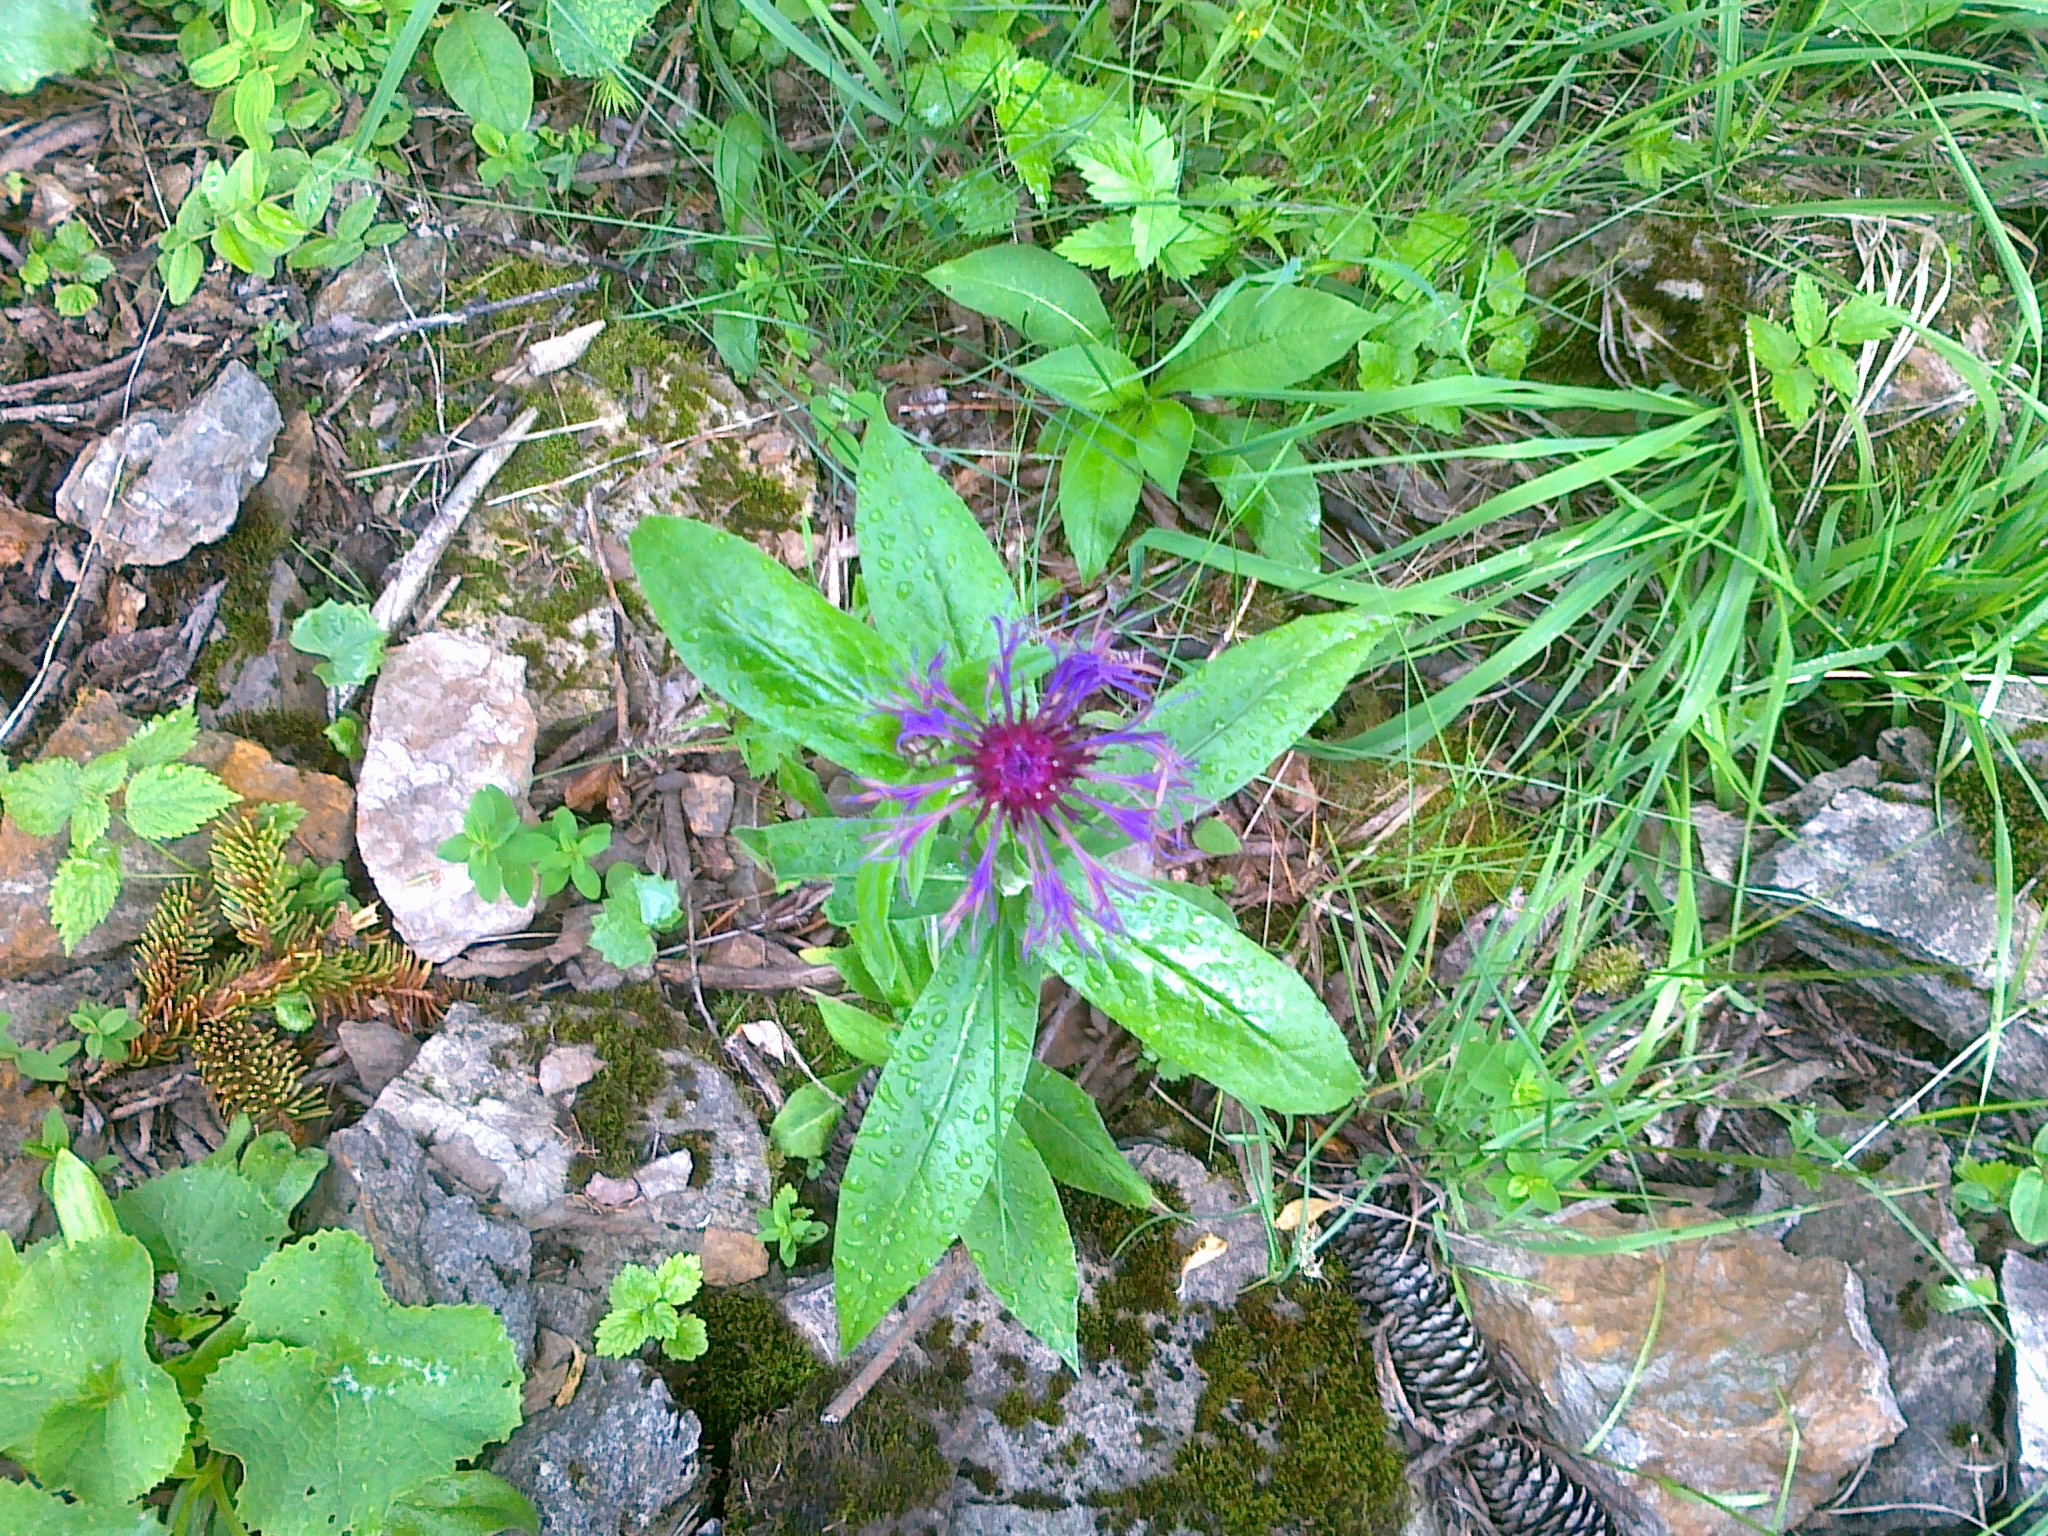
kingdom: Plantae
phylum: Tracheophyta
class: Magnoliopsida
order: Asterales
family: Asteraceae
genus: Centaurea
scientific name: Centaurea montana
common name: Perennial cornflower
